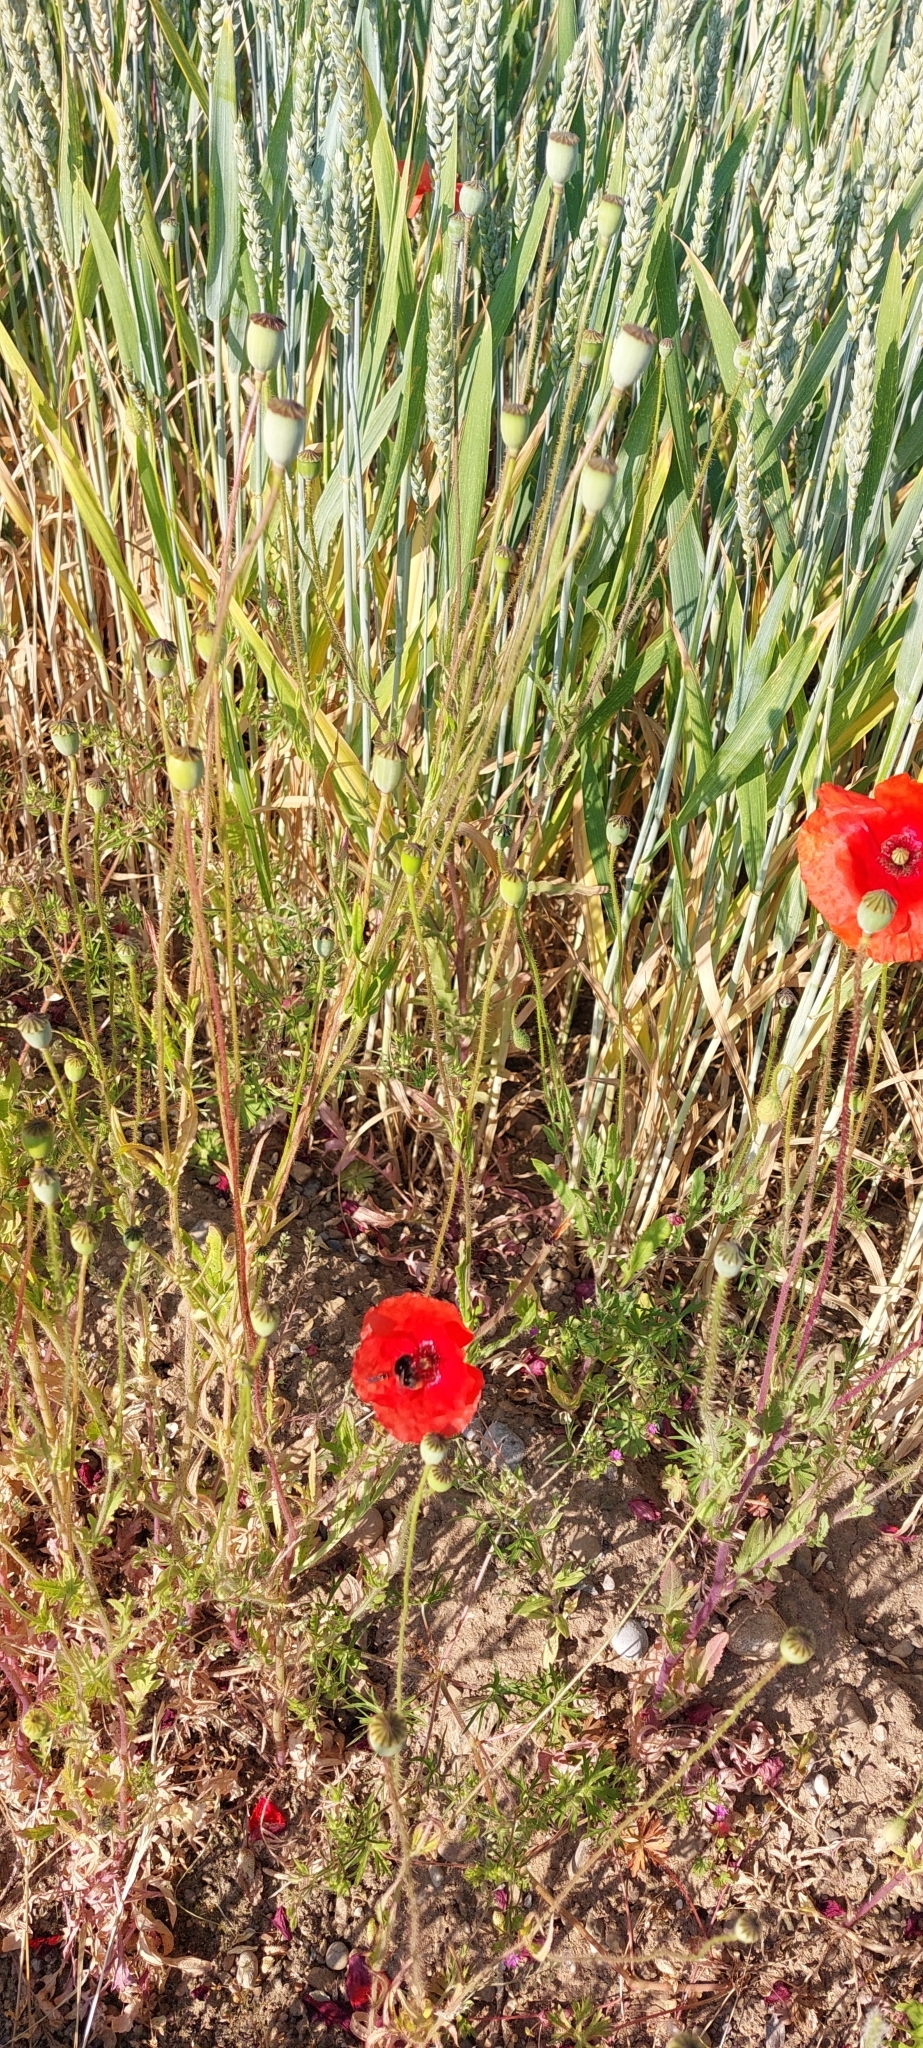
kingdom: Plantae
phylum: Tracheophyta
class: Magnoliopsida
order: Ranunculales
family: Papaveraceae
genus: Papaver
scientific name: Papaver rhoeas
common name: Corn poppy
